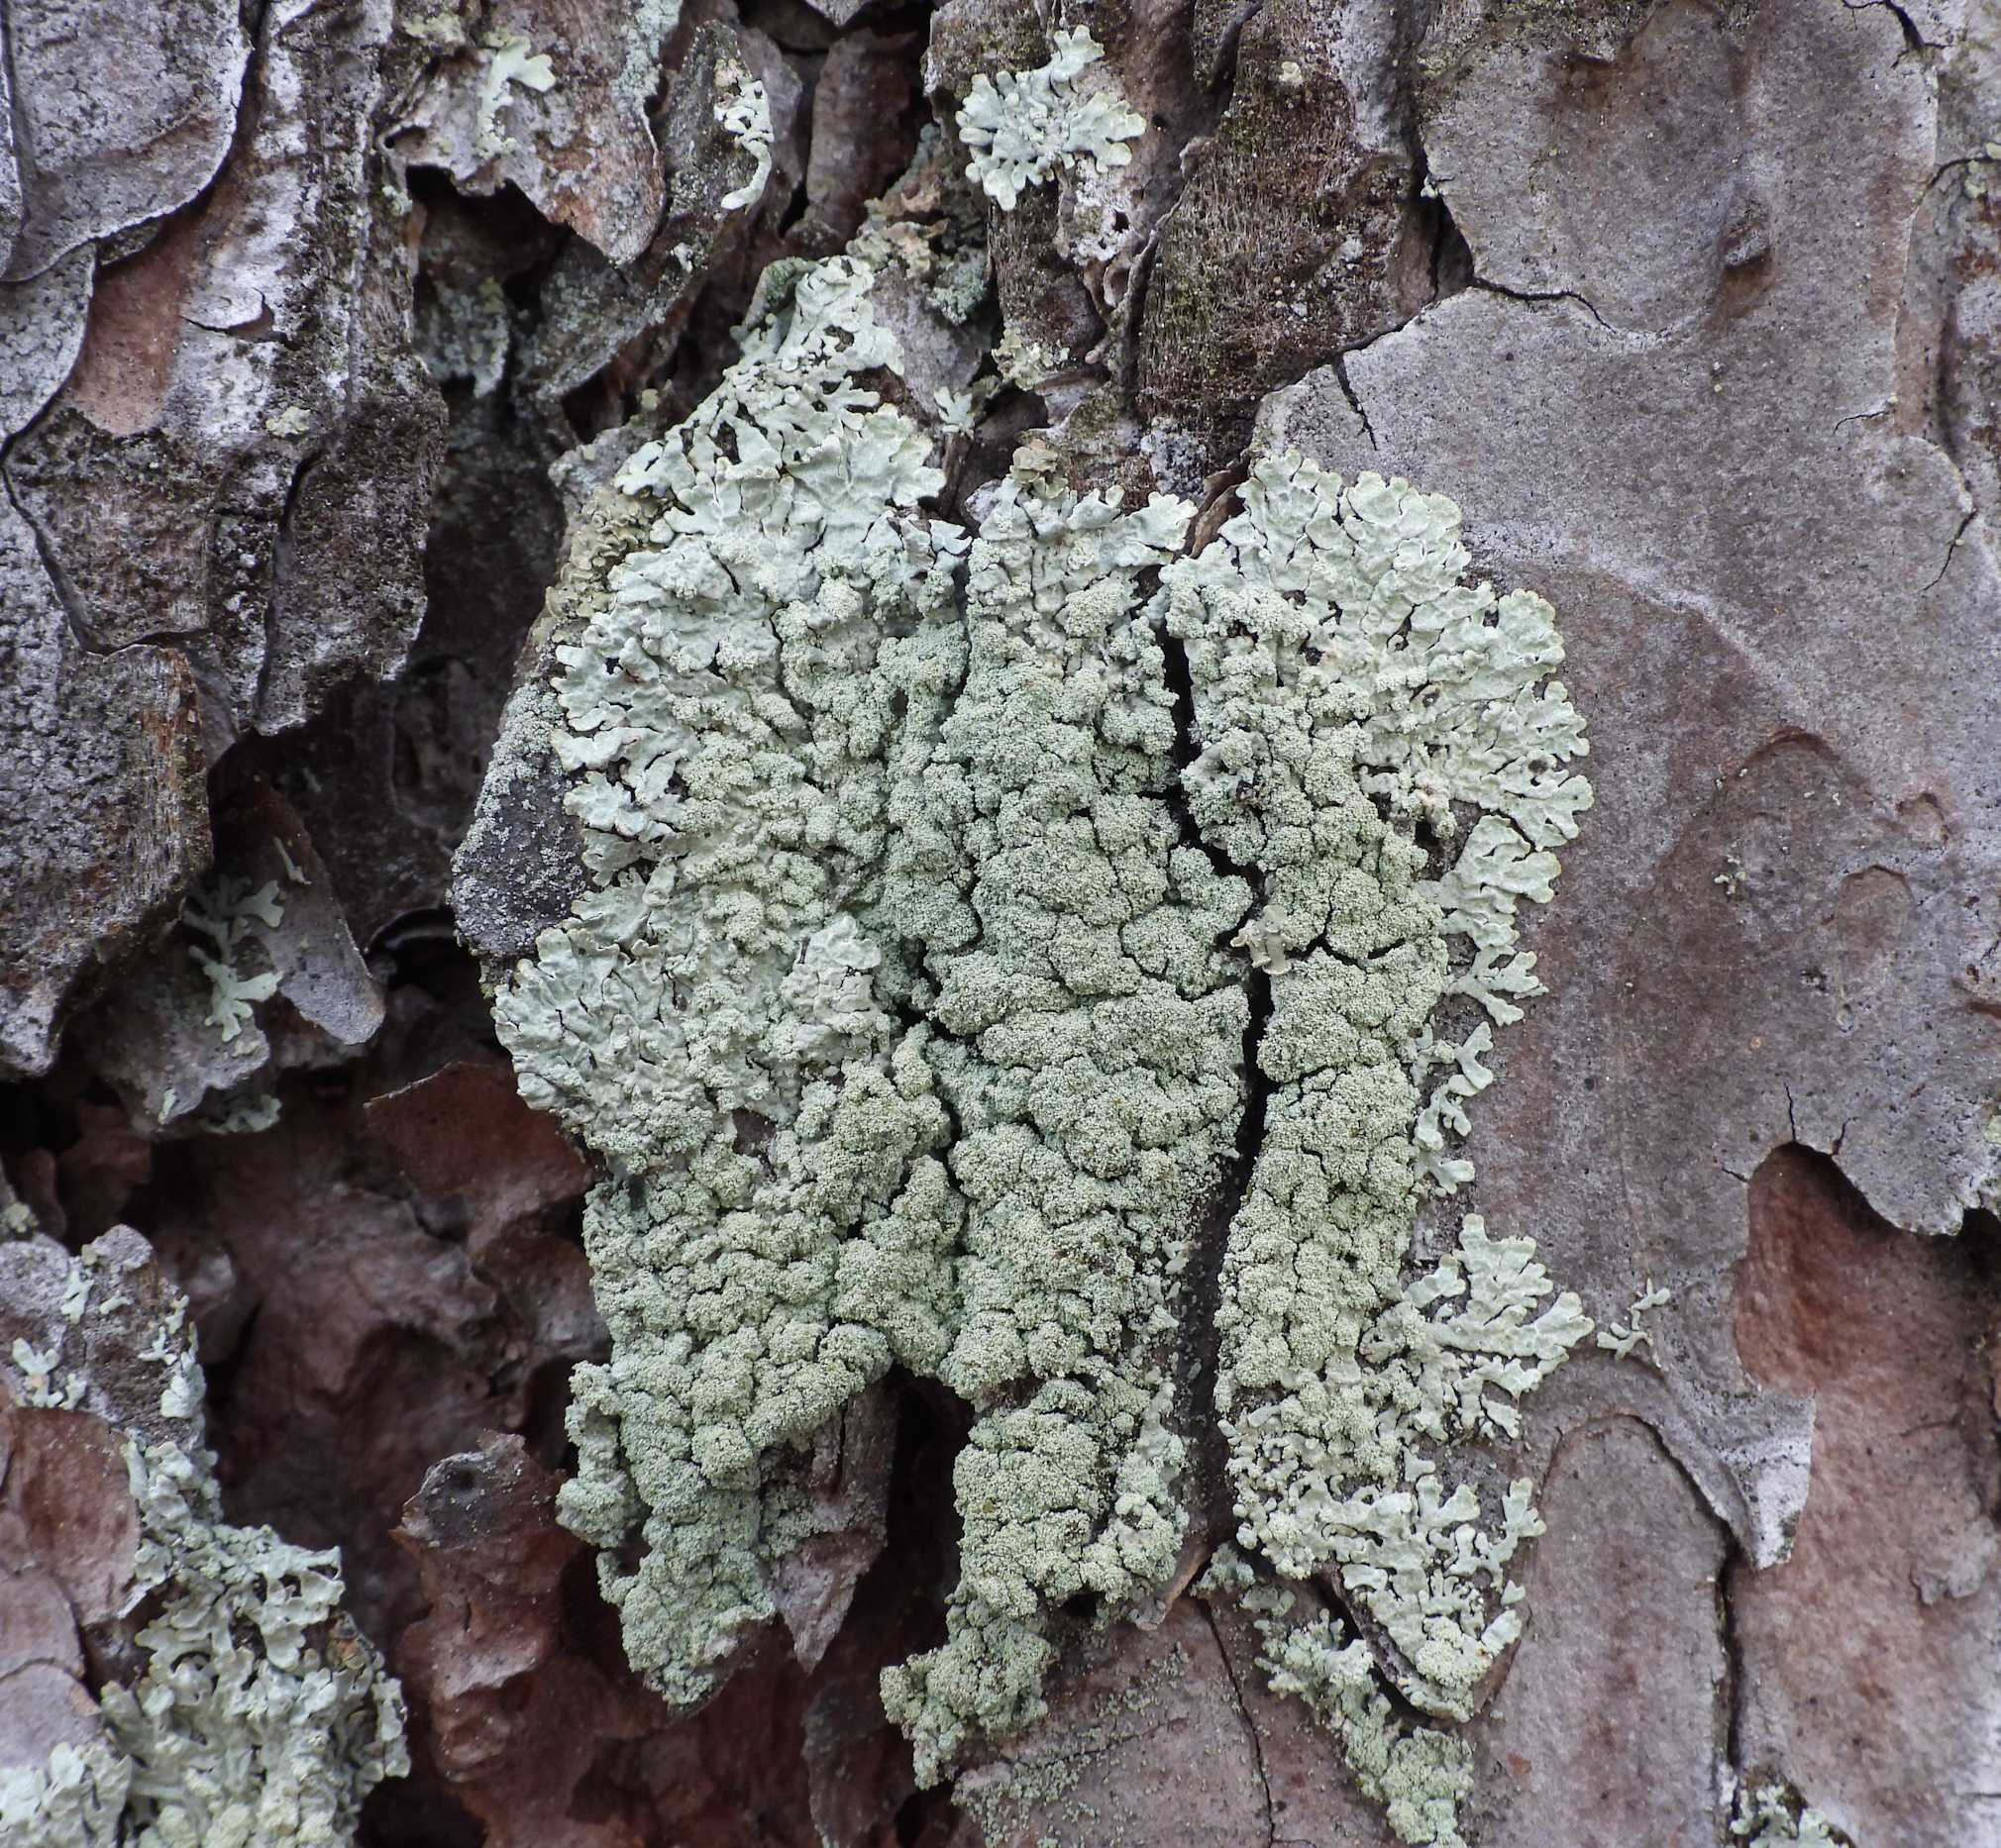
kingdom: Fungi
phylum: Ascomycota
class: Lecanoromycetes
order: Lecanorales
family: Parmeliaceae
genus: Parmeliopsis
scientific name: Parmeliopsis ambigua
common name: Green starburst lichen
